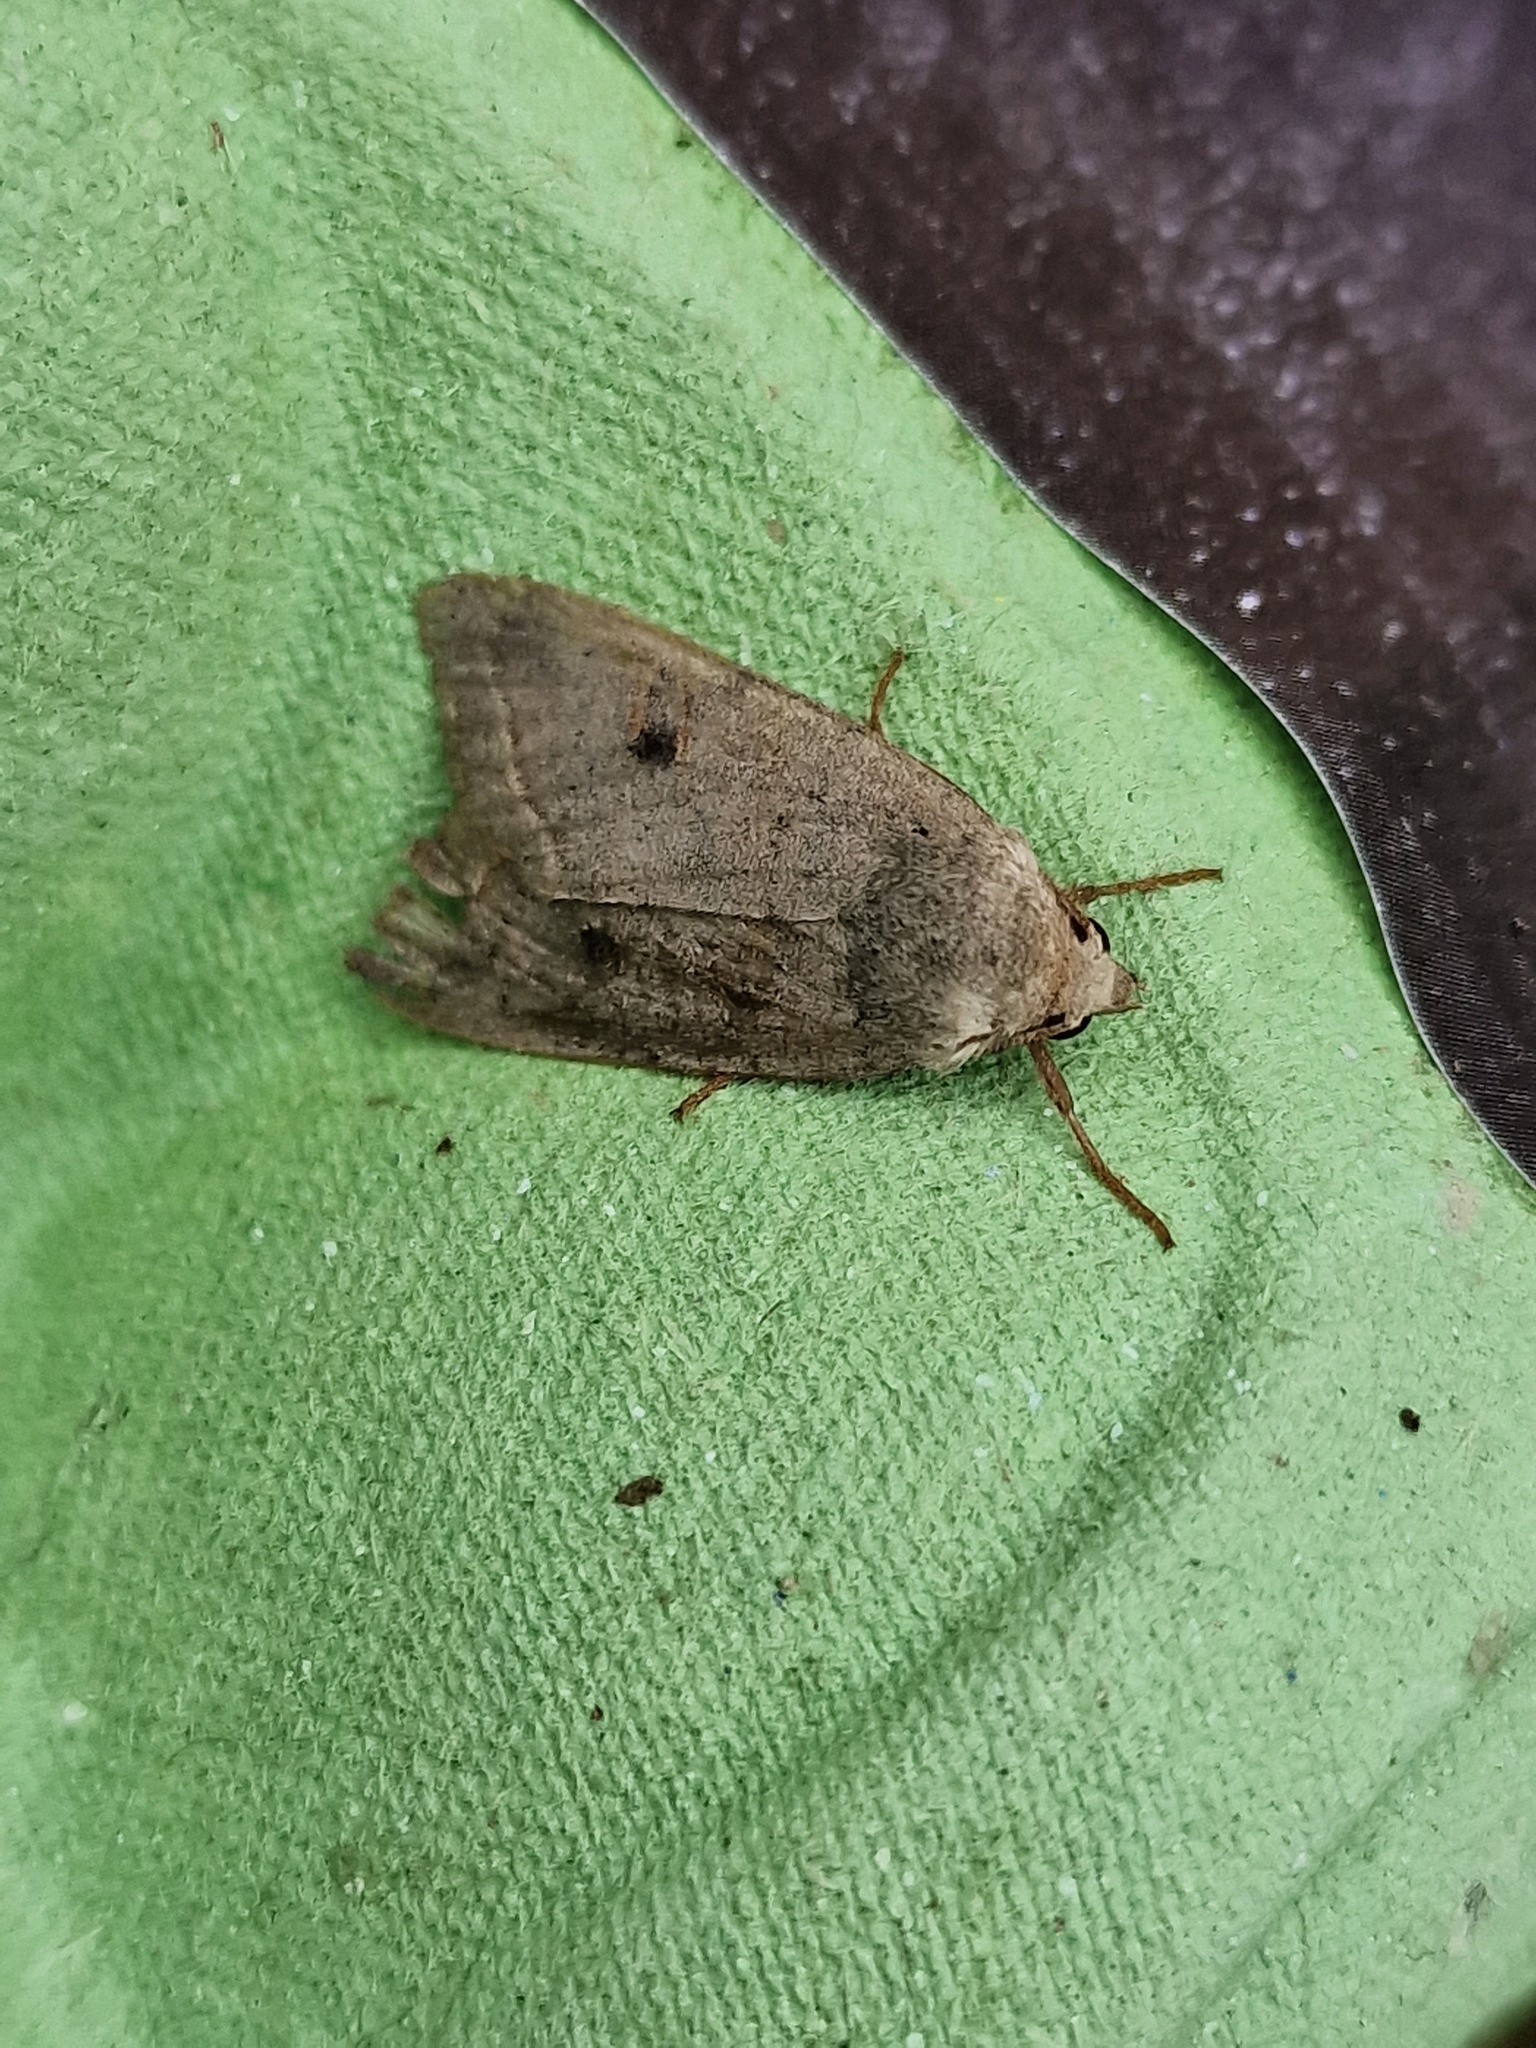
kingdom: Animalia
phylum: Arthropoda
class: Insecta
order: Lepidoptera
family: Noctuidae
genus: Agrochola
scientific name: Agrochola lota
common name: Red-line quaker
